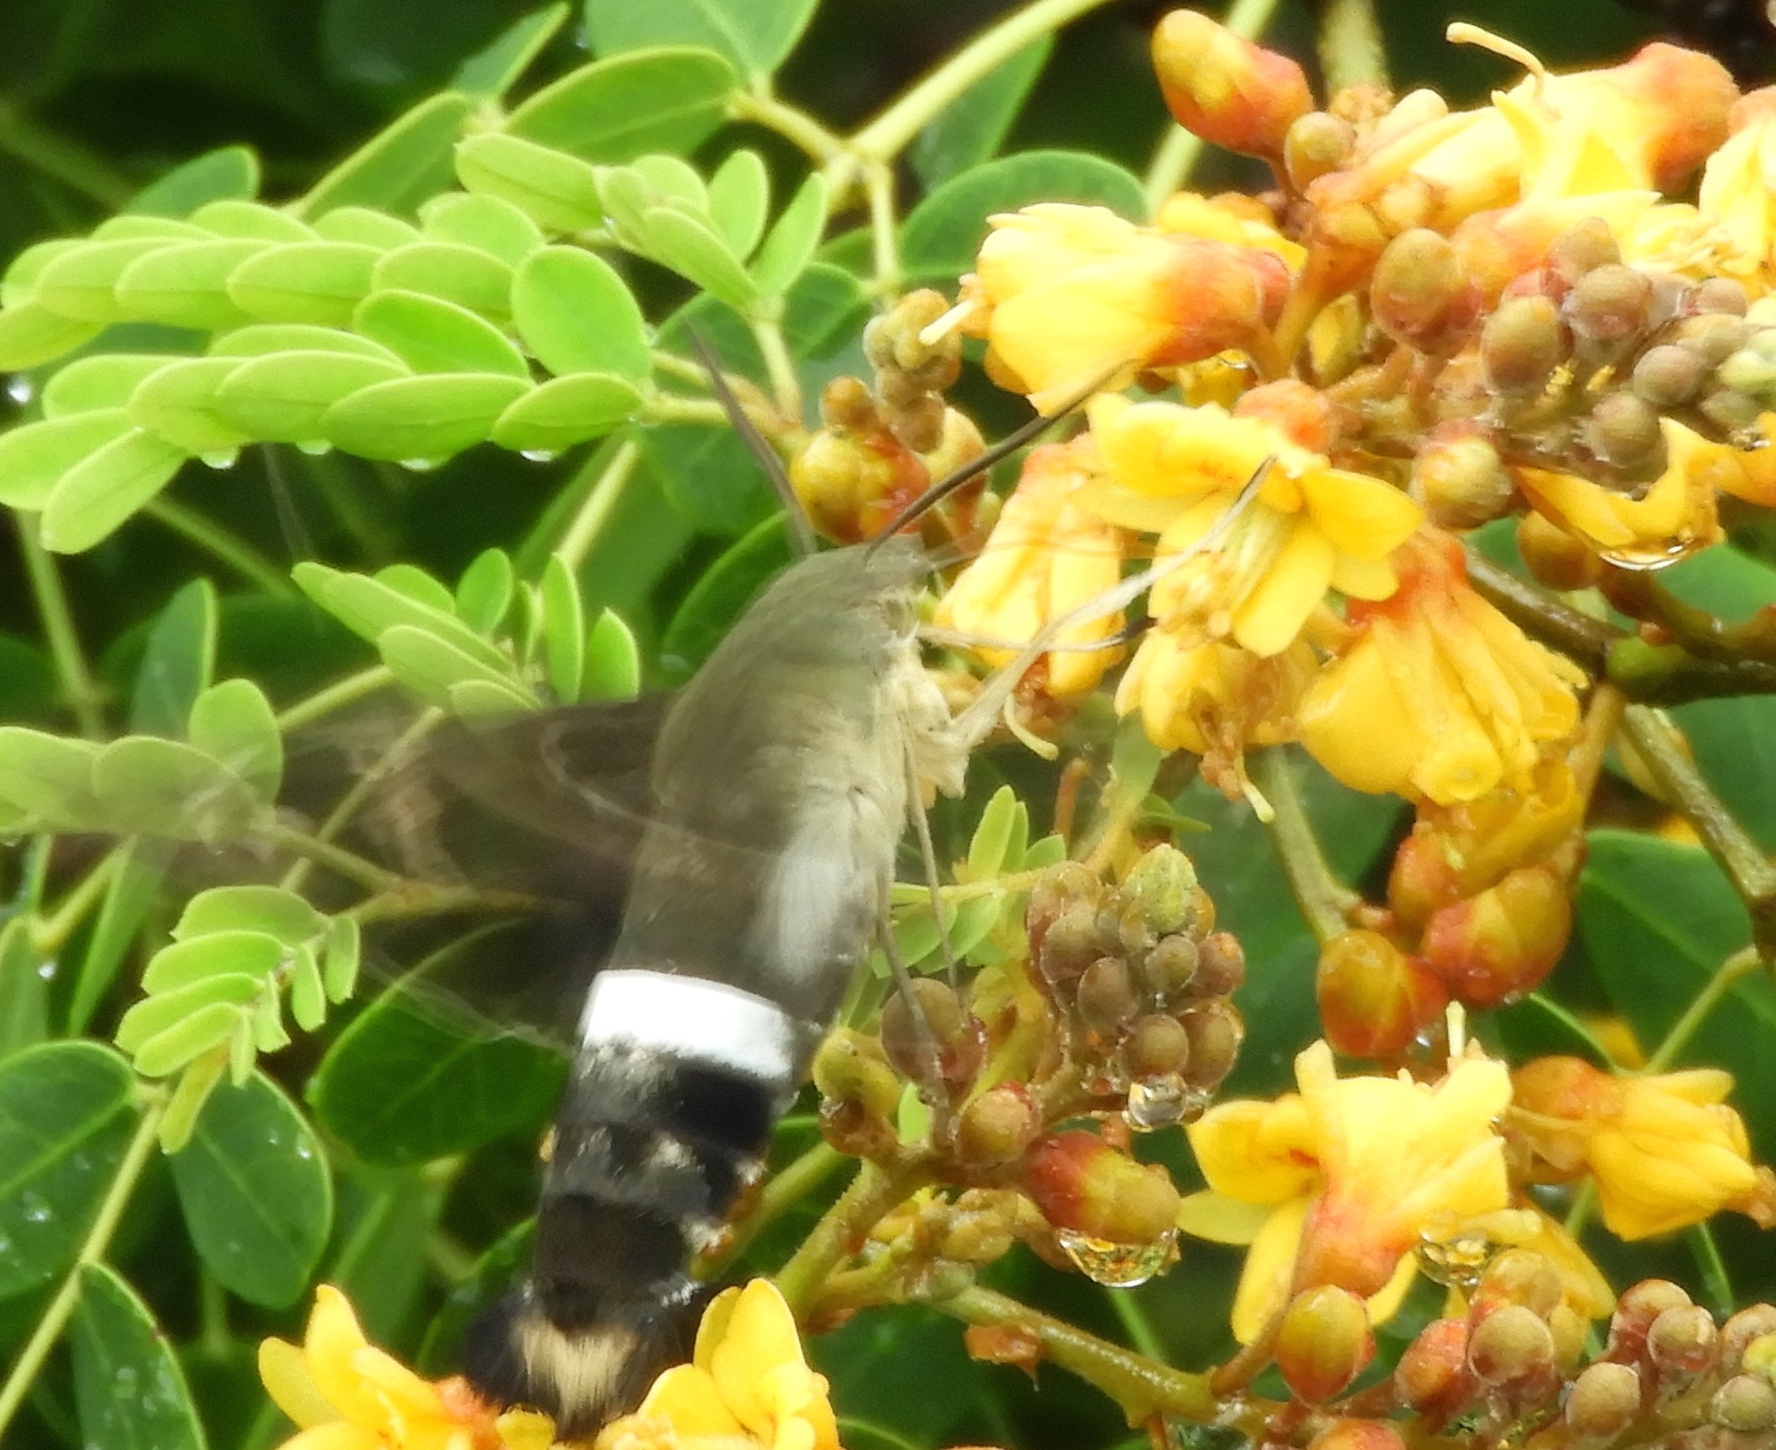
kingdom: Animalia
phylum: Arthropoda
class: Insecta
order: Lepidoptera
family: Sphingidae
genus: Aellopos
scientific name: Aellopos
